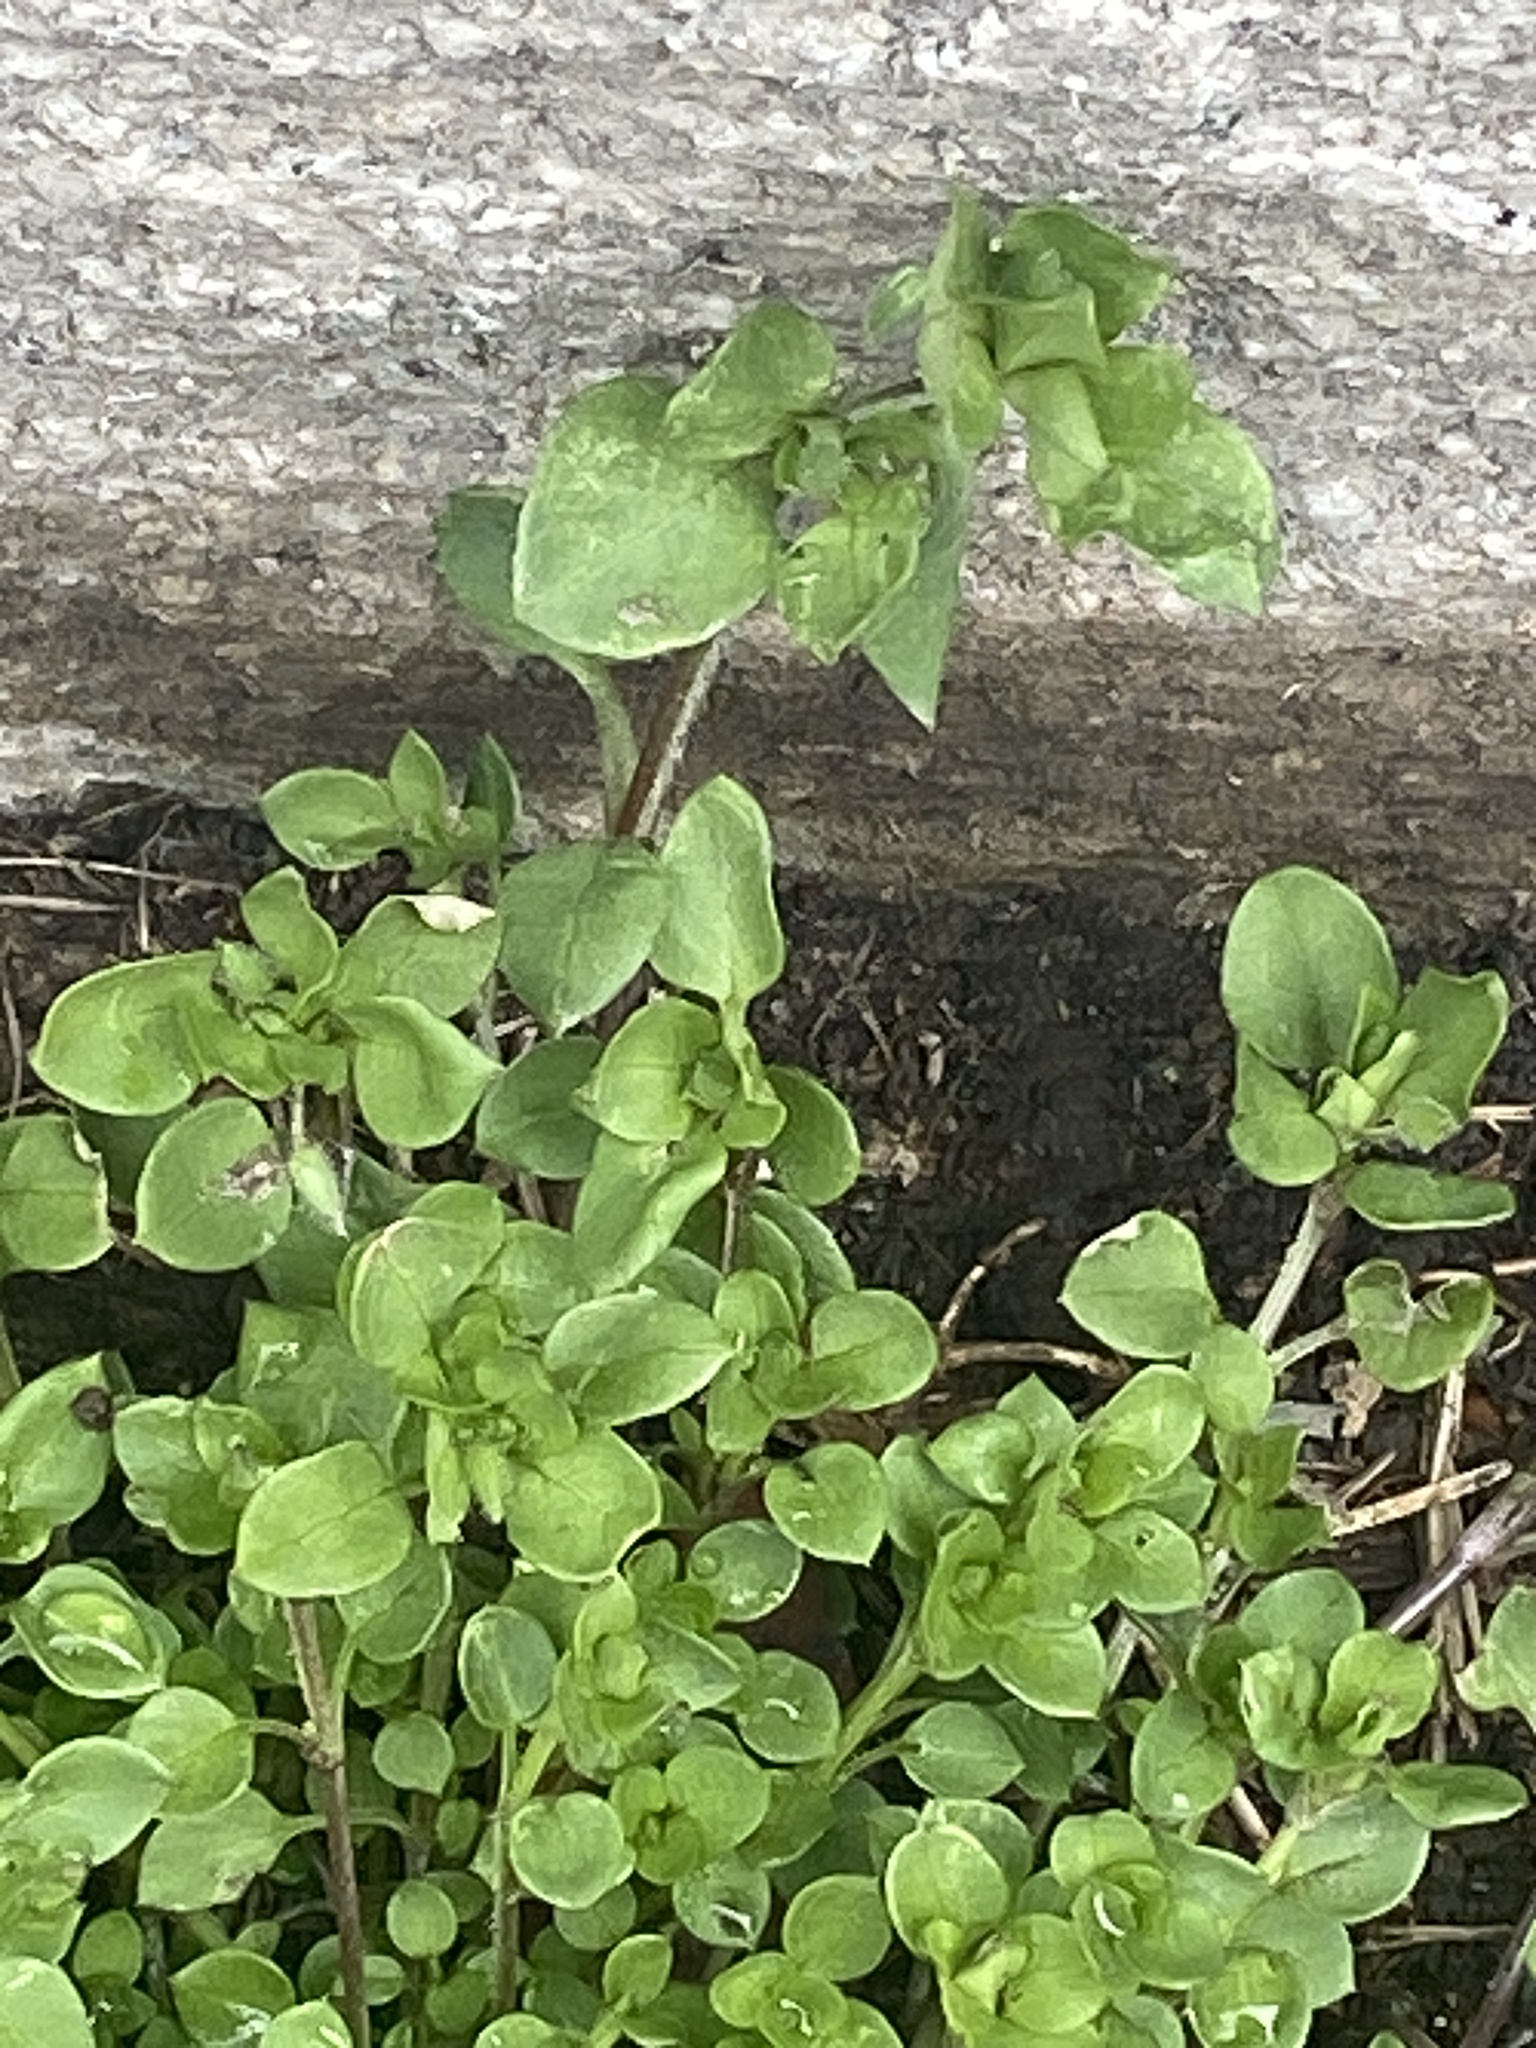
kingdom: Plantae
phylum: Tracheophyta
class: Magnoliopsida
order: Caryophyllales
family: Caryophyllaceae
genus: Stellaria
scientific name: Stellaria media
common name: Common chickweed
